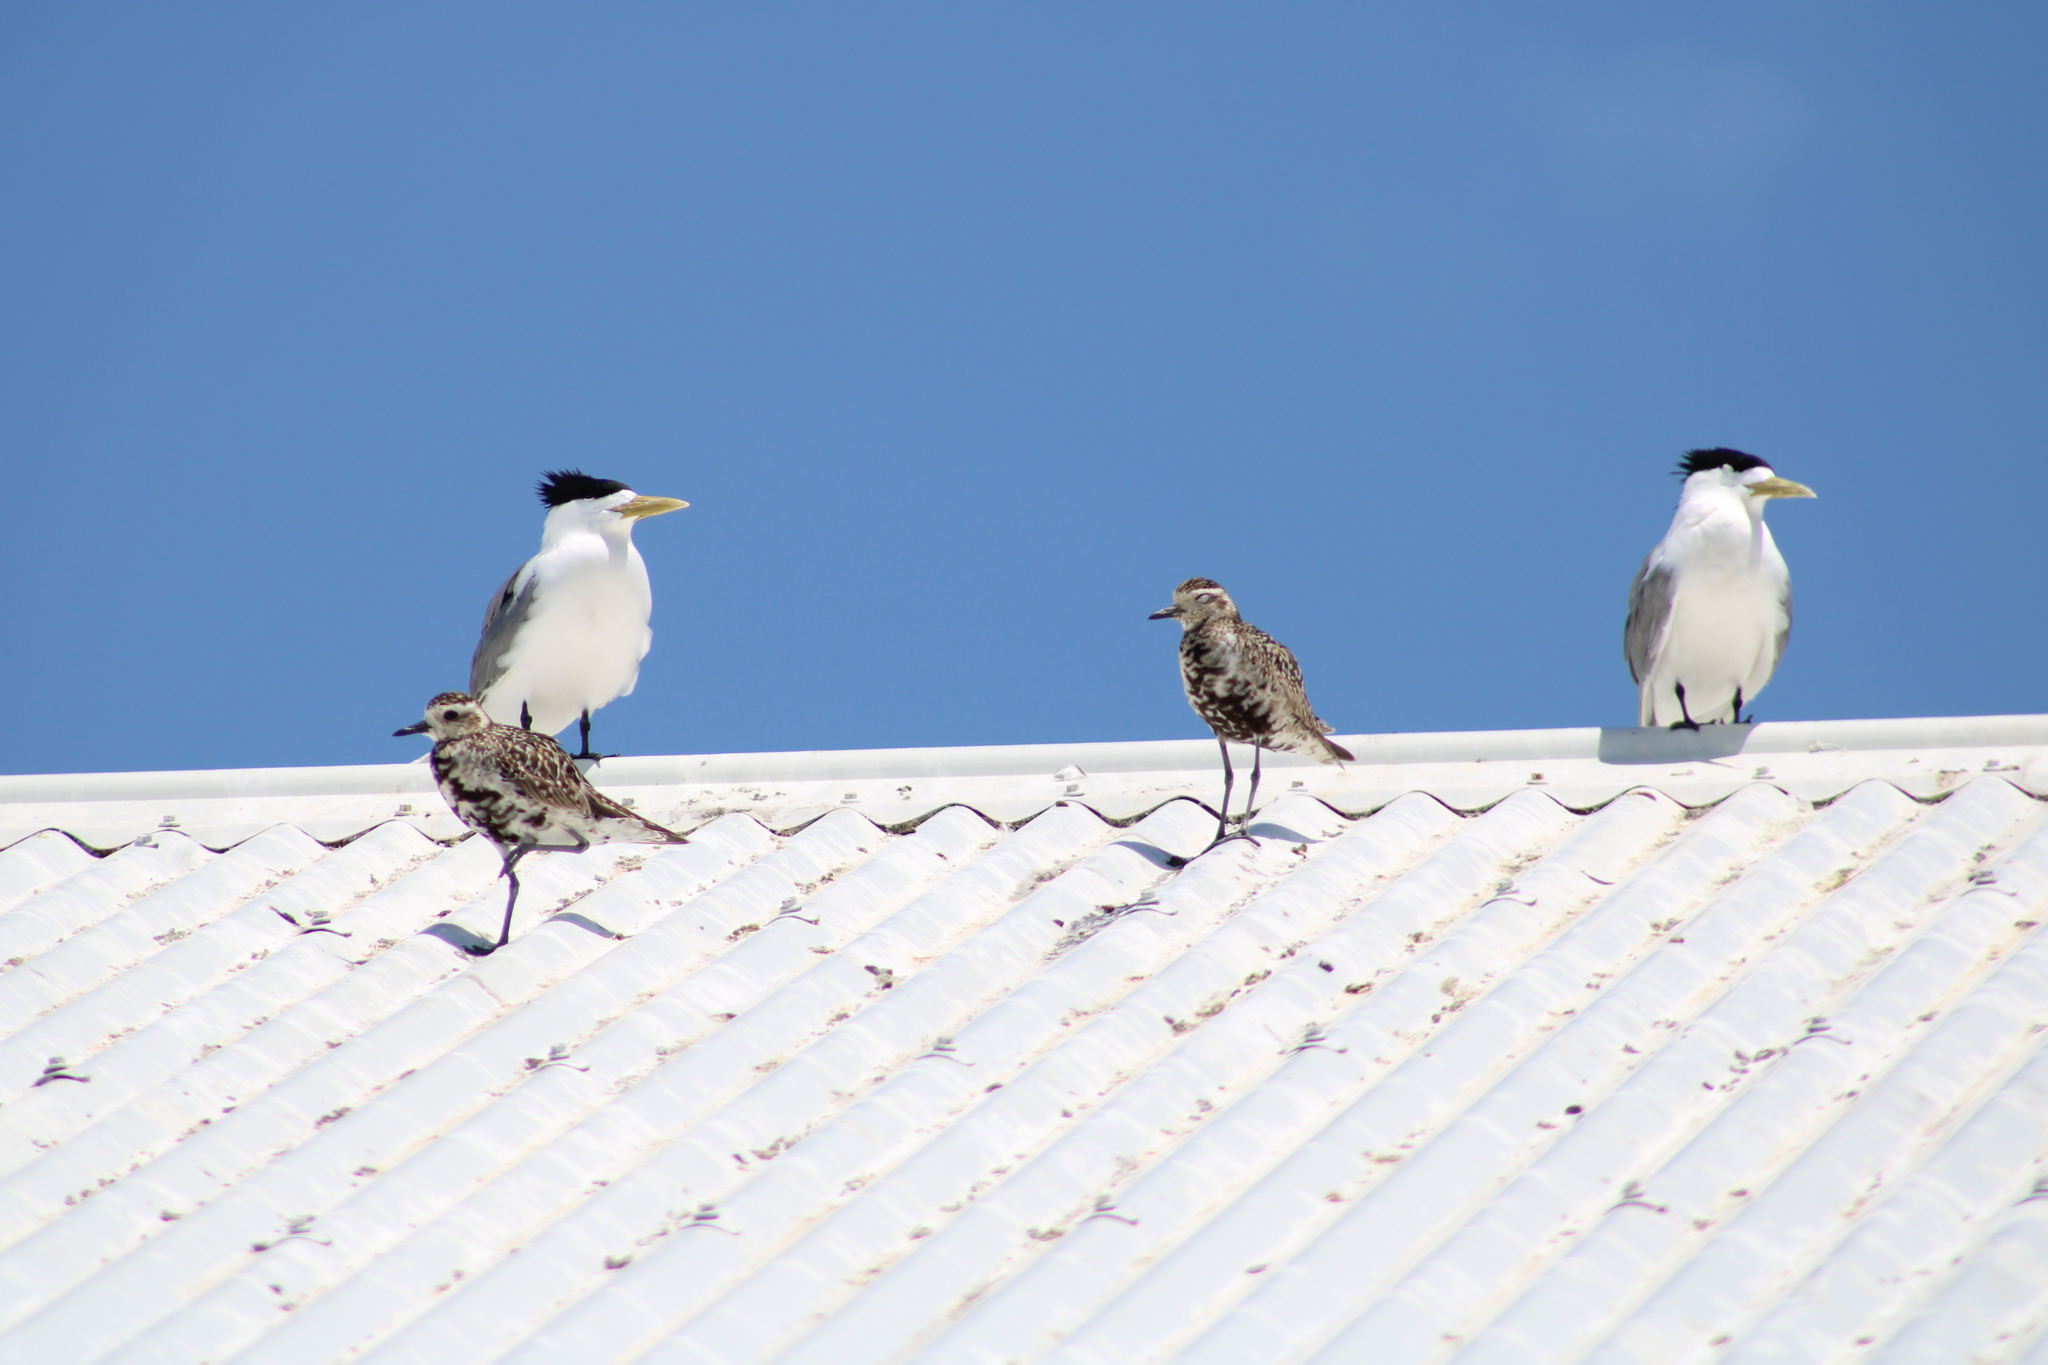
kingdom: Animalia
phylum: Chordata
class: Aves
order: Charadriiformes
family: Charadriidae
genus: Pluvialis
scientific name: Pluvialis fulva
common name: Pacific golden plover
